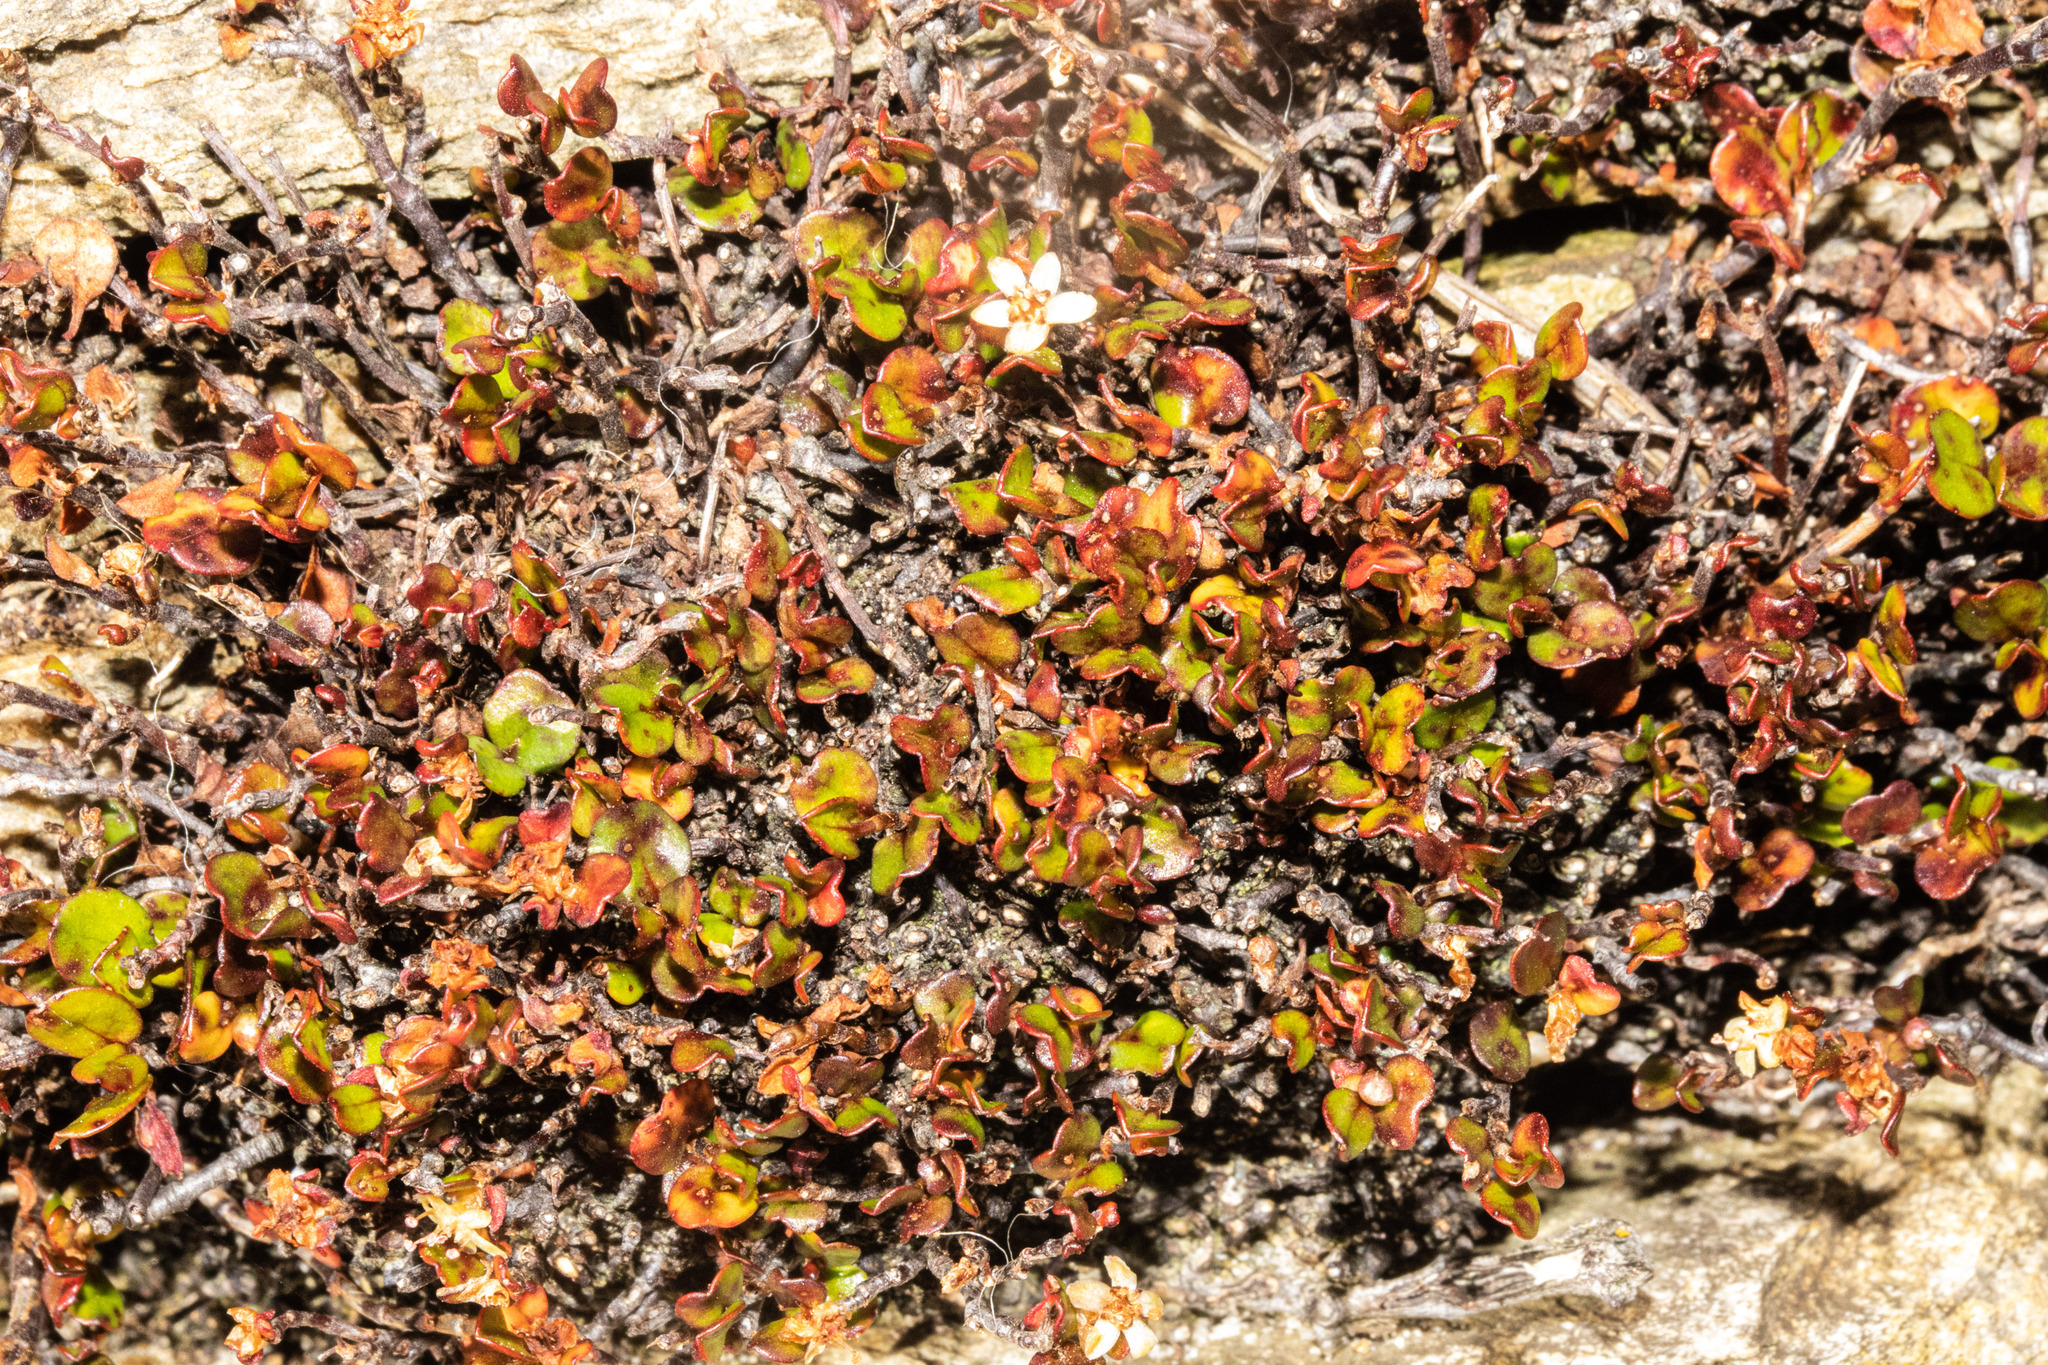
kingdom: Plantae
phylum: Tracheophyta
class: Magnoliopsida
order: Caryophyllales
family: Polygonaceae
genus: Muehlenbeckia
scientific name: Muehlenbeckia axillaris
